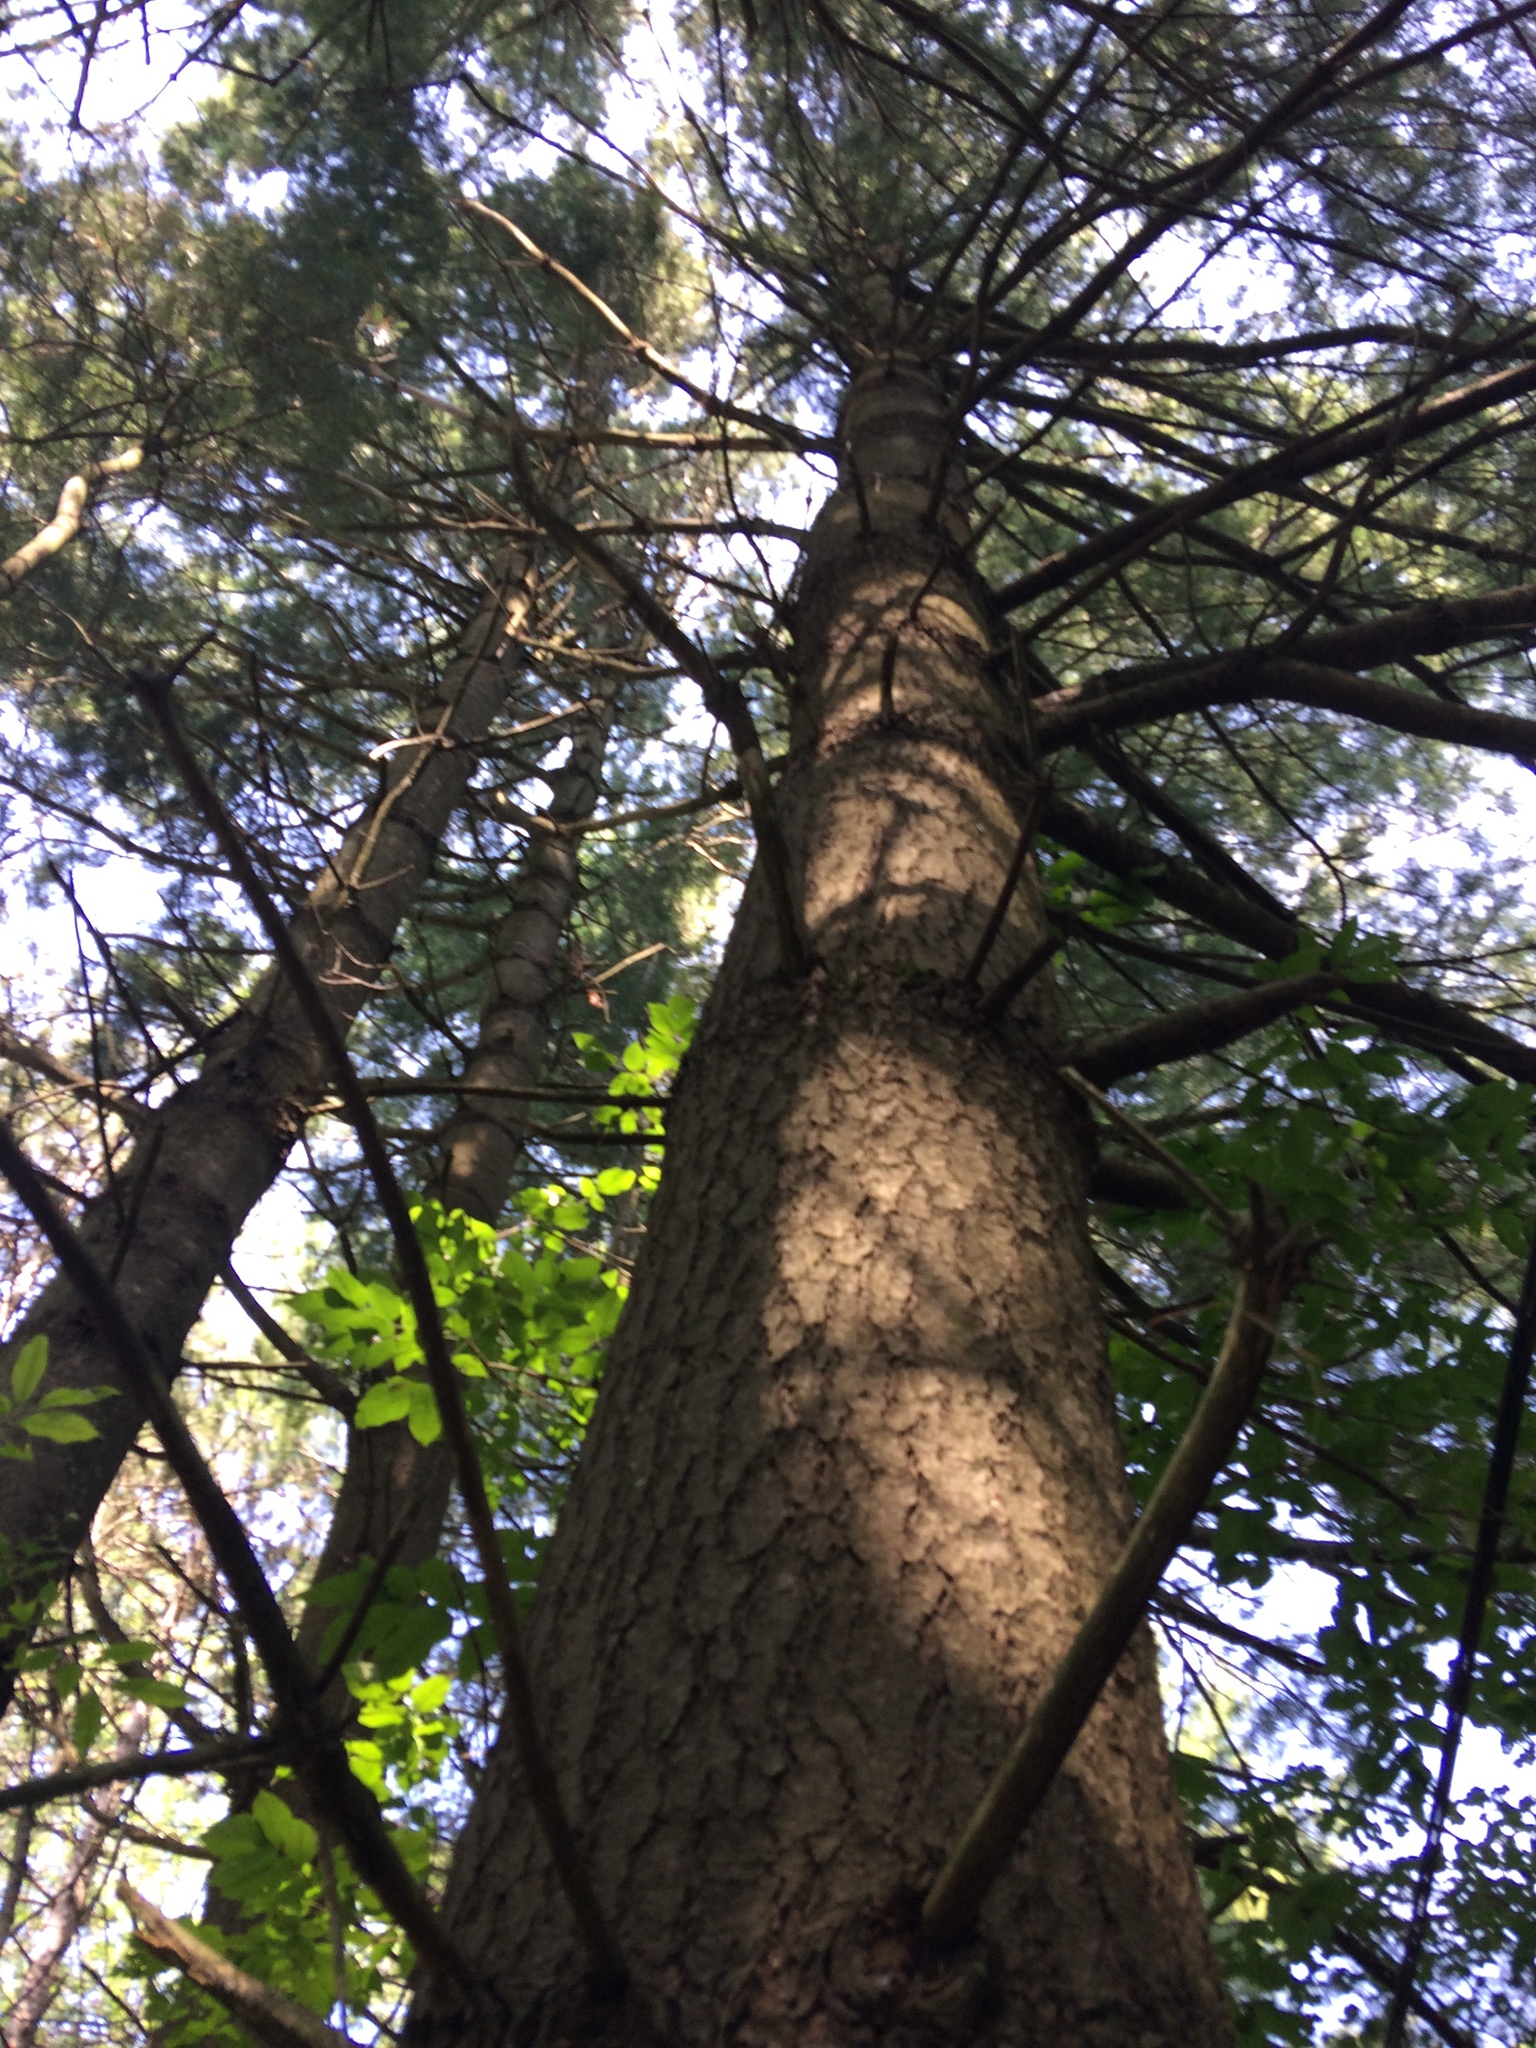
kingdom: Plantae
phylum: Tracheophyta
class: Pinopsida
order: Pinales
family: Pinaceae
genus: Pinus
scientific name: Pinus strobus
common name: Weymouth pine
